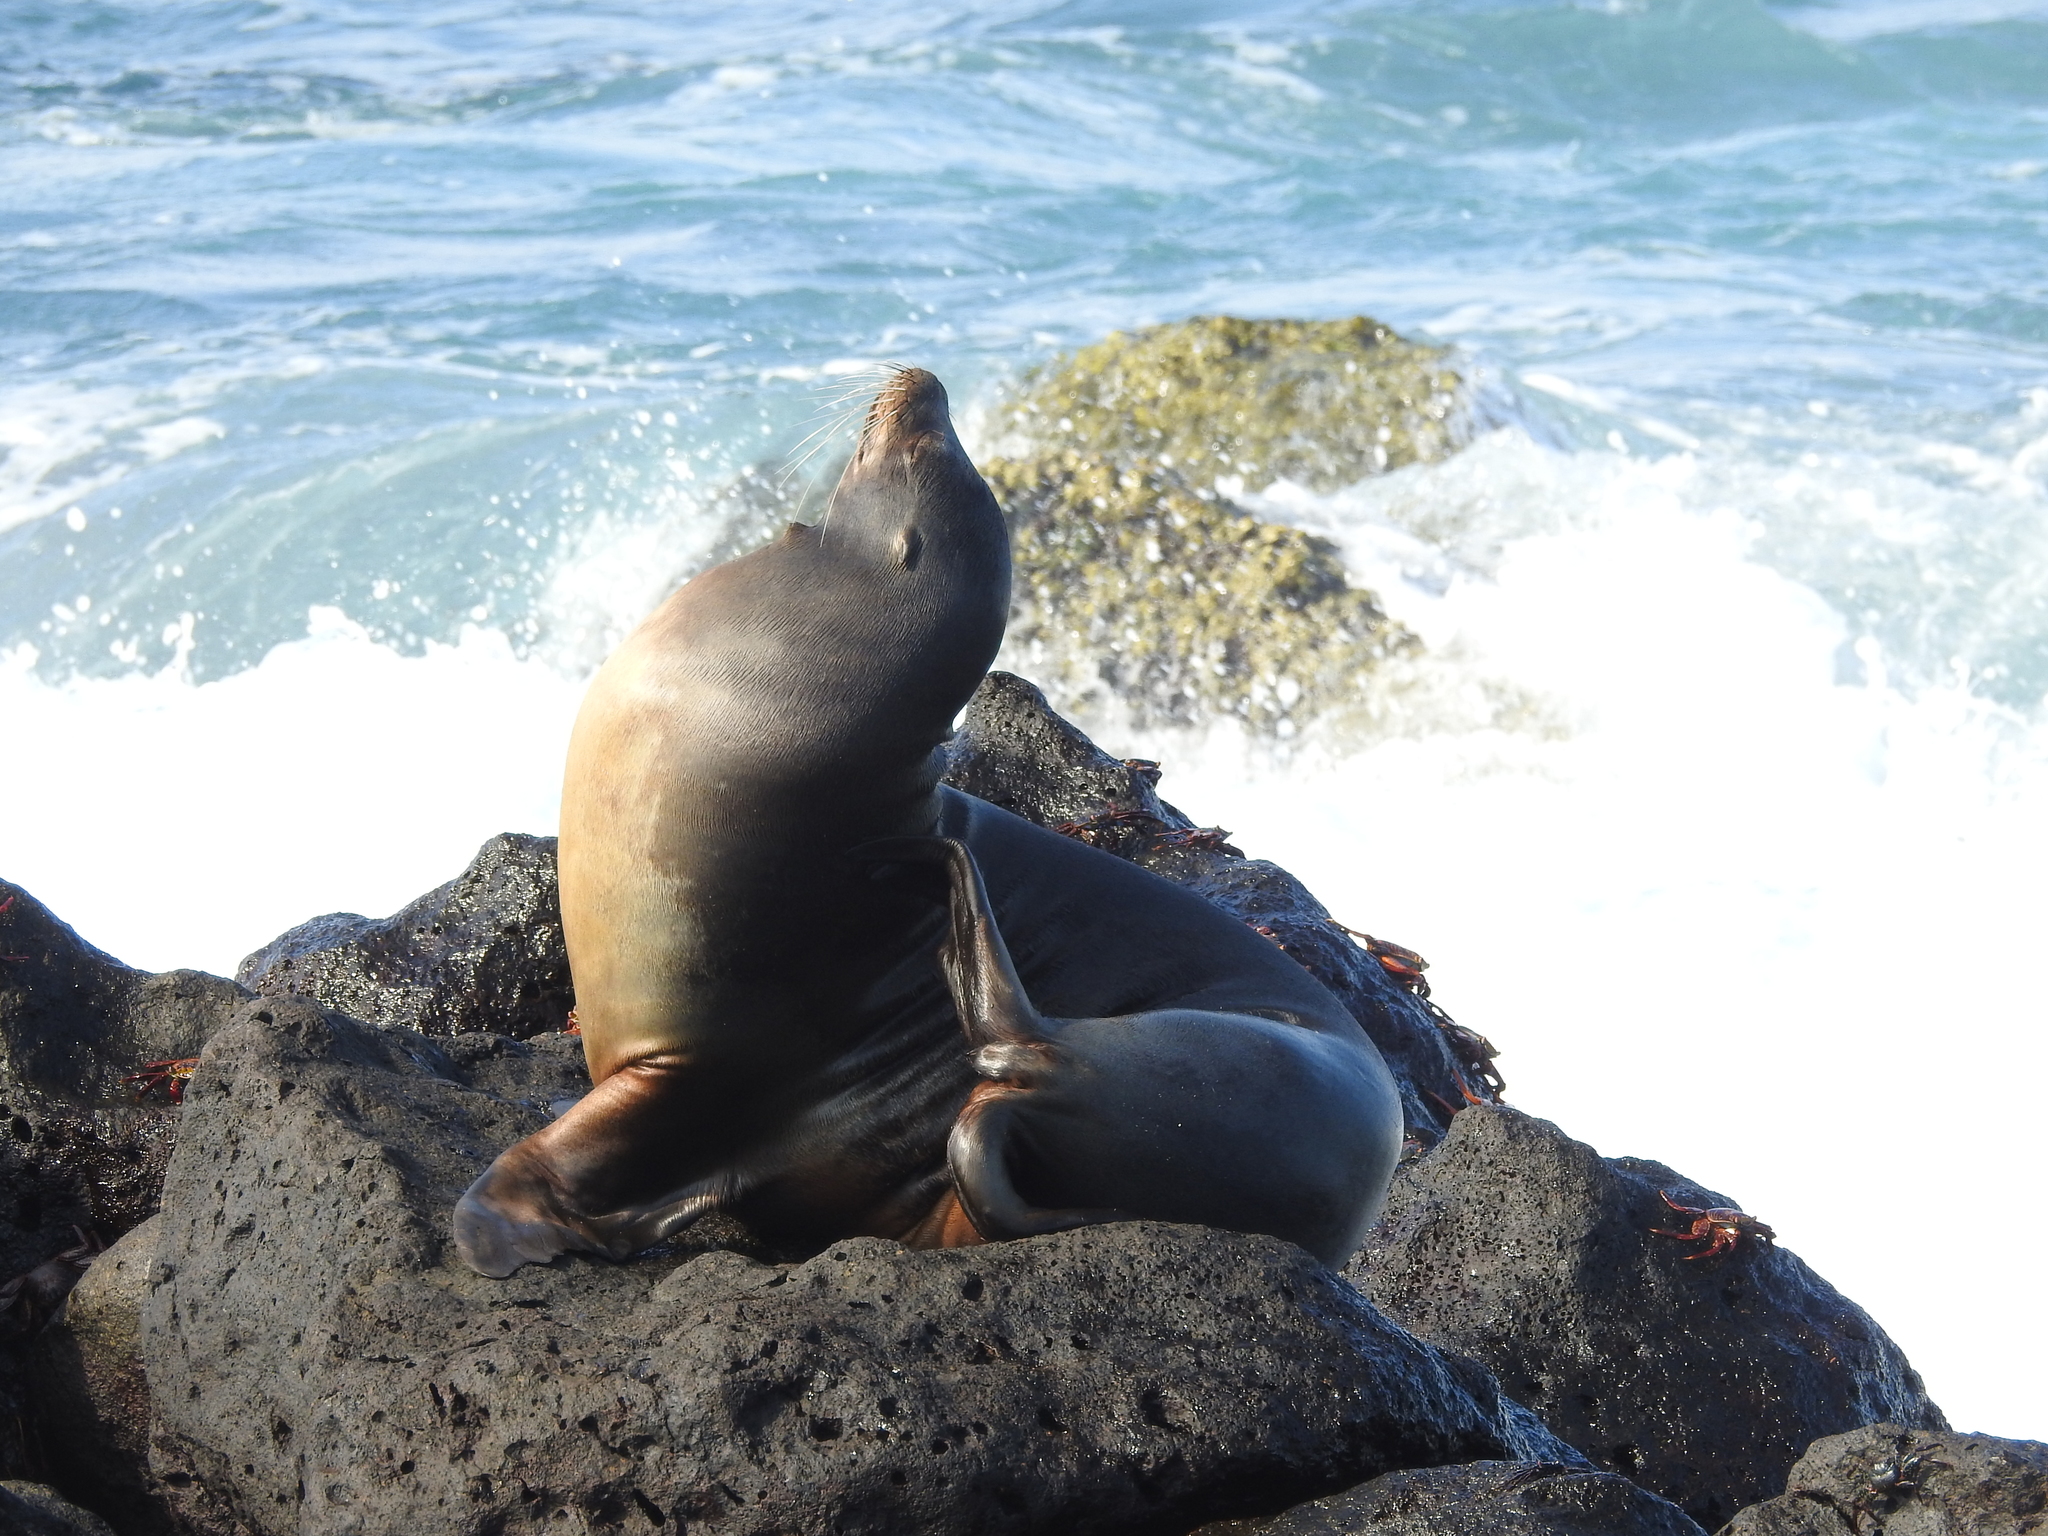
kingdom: Animalia
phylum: Chordata
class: Mammalia
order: Carnivora
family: Otariidae
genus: Zalophus
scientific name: Zalophus wollebaeki
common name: Galapagos sea lion
